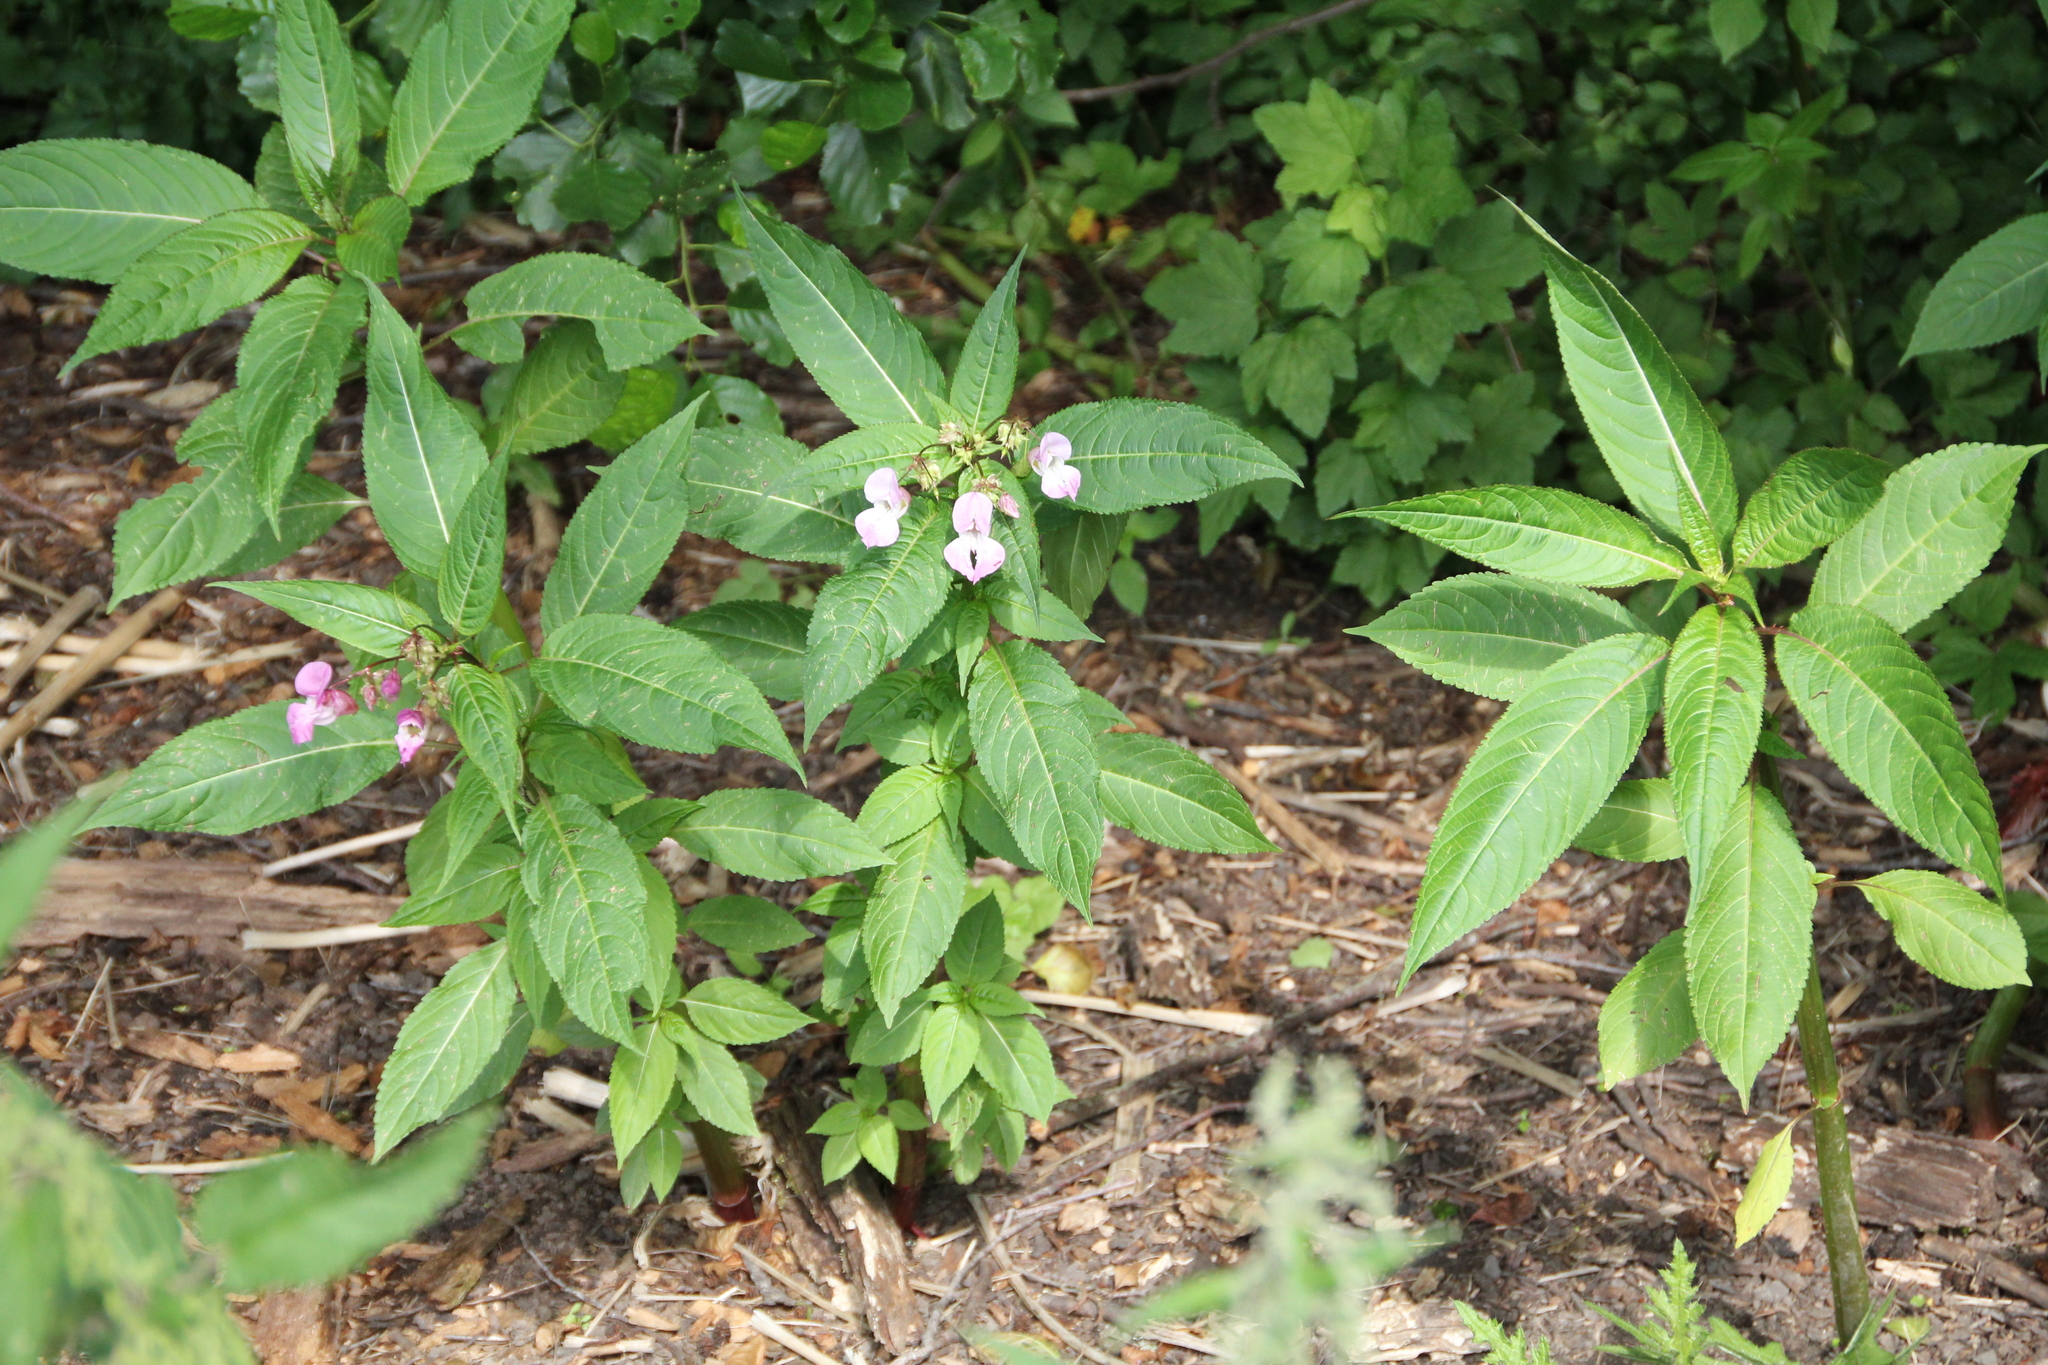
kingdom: Plantae
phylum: Tracheophyta
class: Magnoliopsida
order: Ericales
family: Balsaminaceae
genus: Impatiens
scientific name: Impatiens glandulifera
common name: Himalayan balsam
